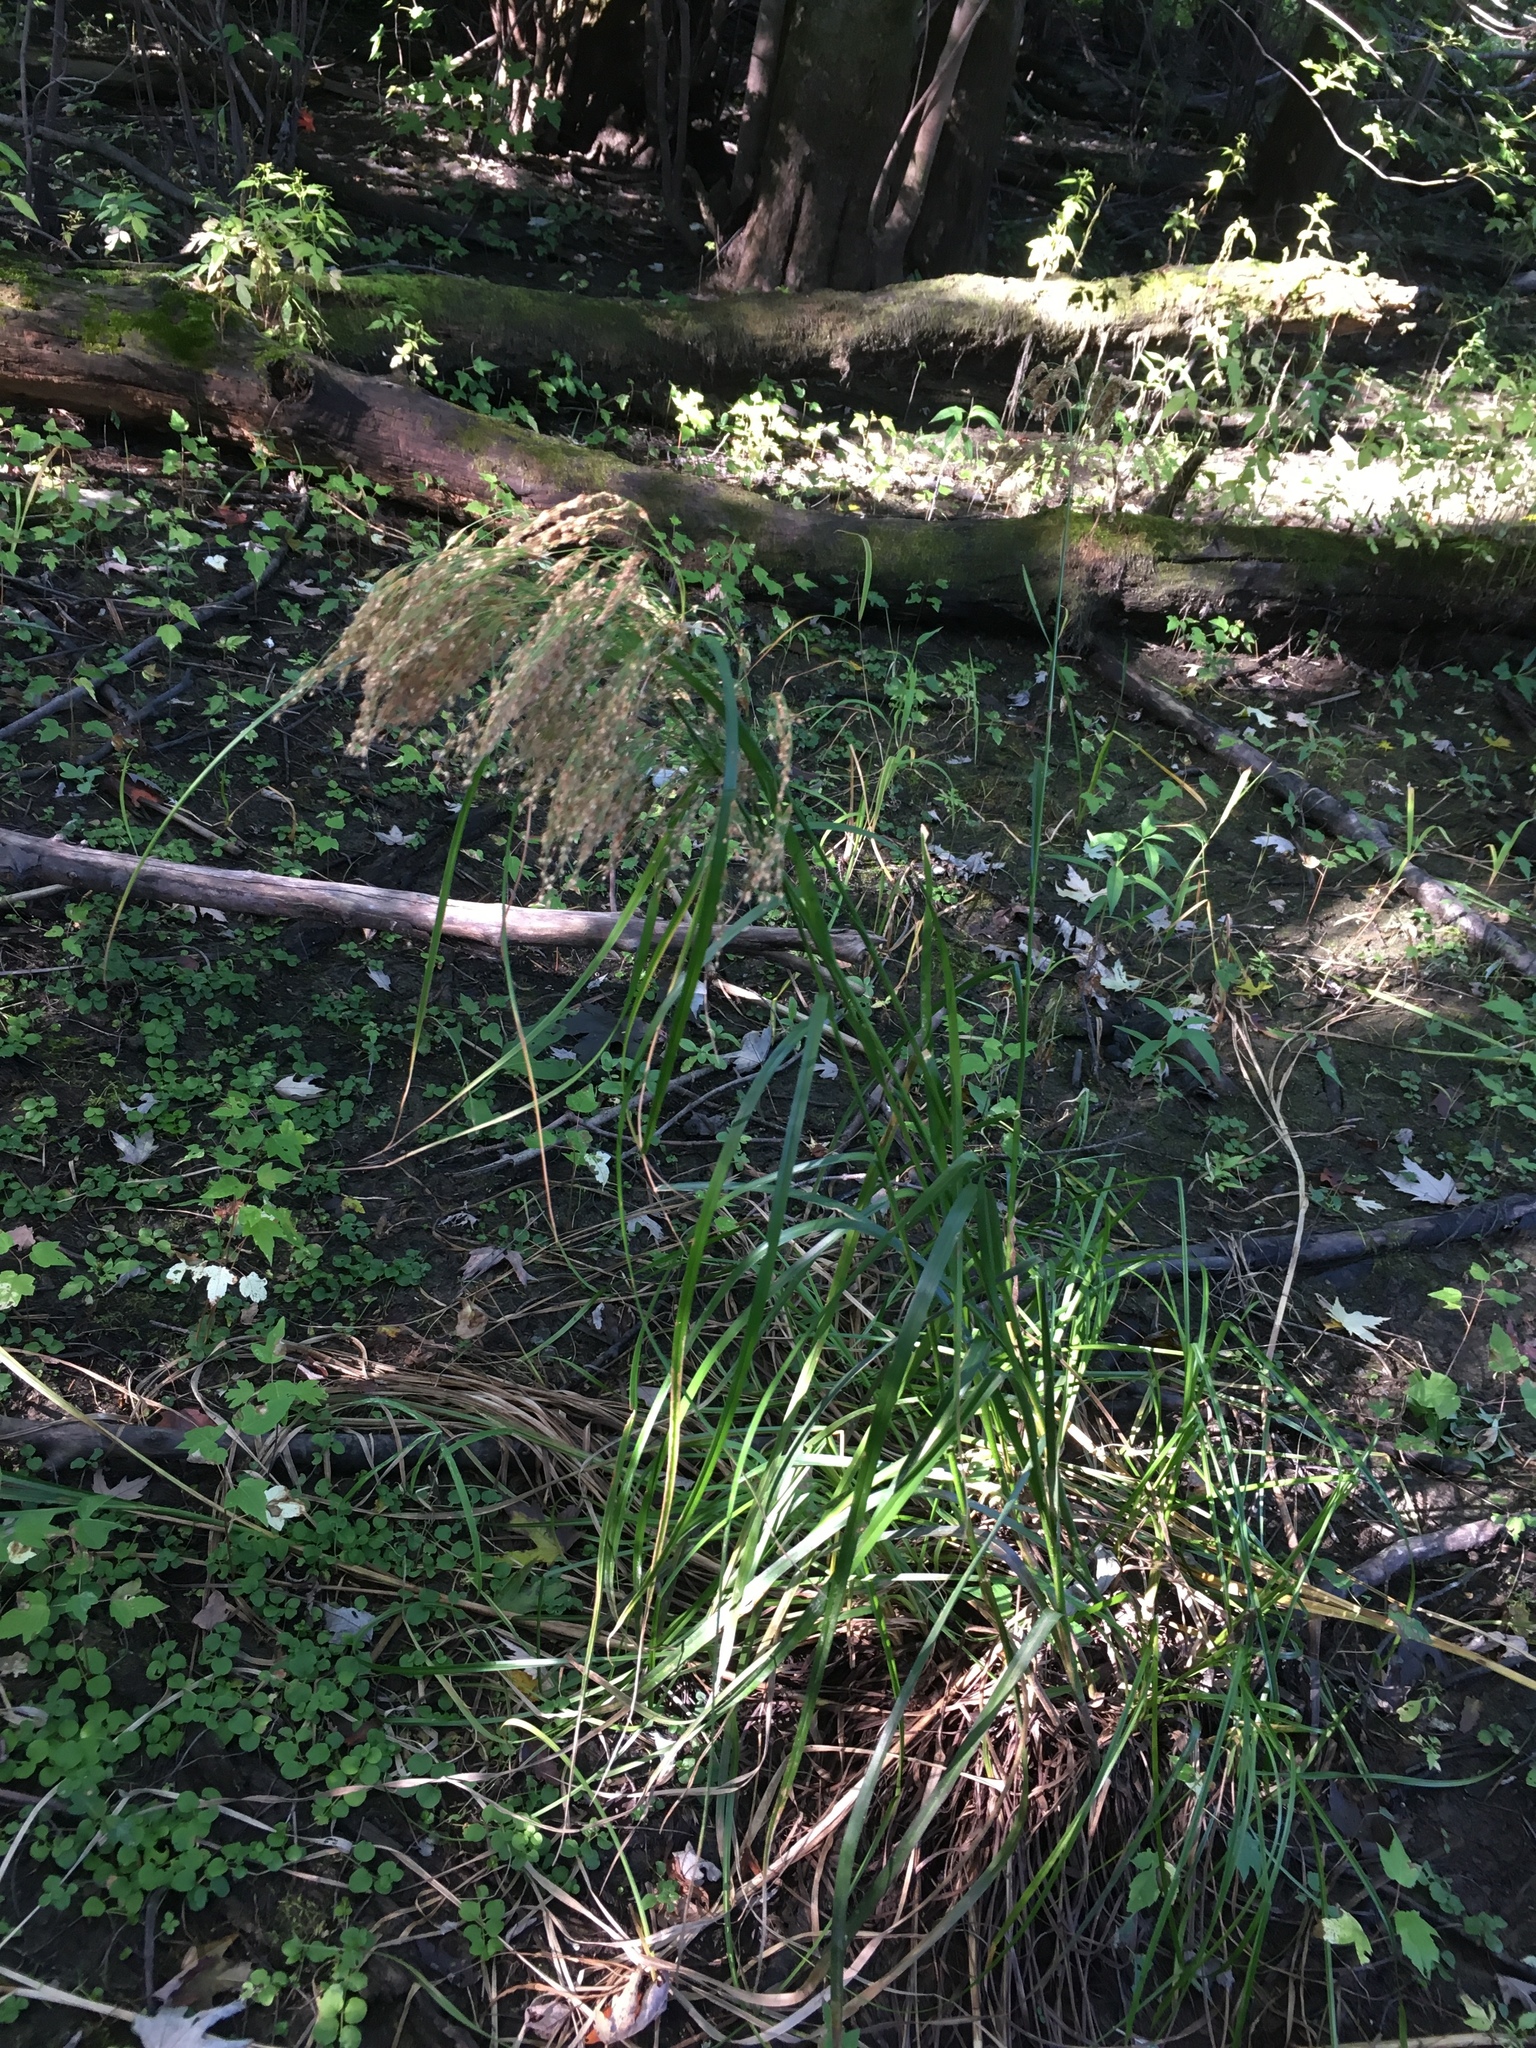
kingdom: Plantae
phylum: Tracheophyta
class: Liliopsida
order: Poales
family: Cyperaceae
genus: Scirpus
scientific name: Scirpus cyperinus
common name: Black-sheathed bulrush
